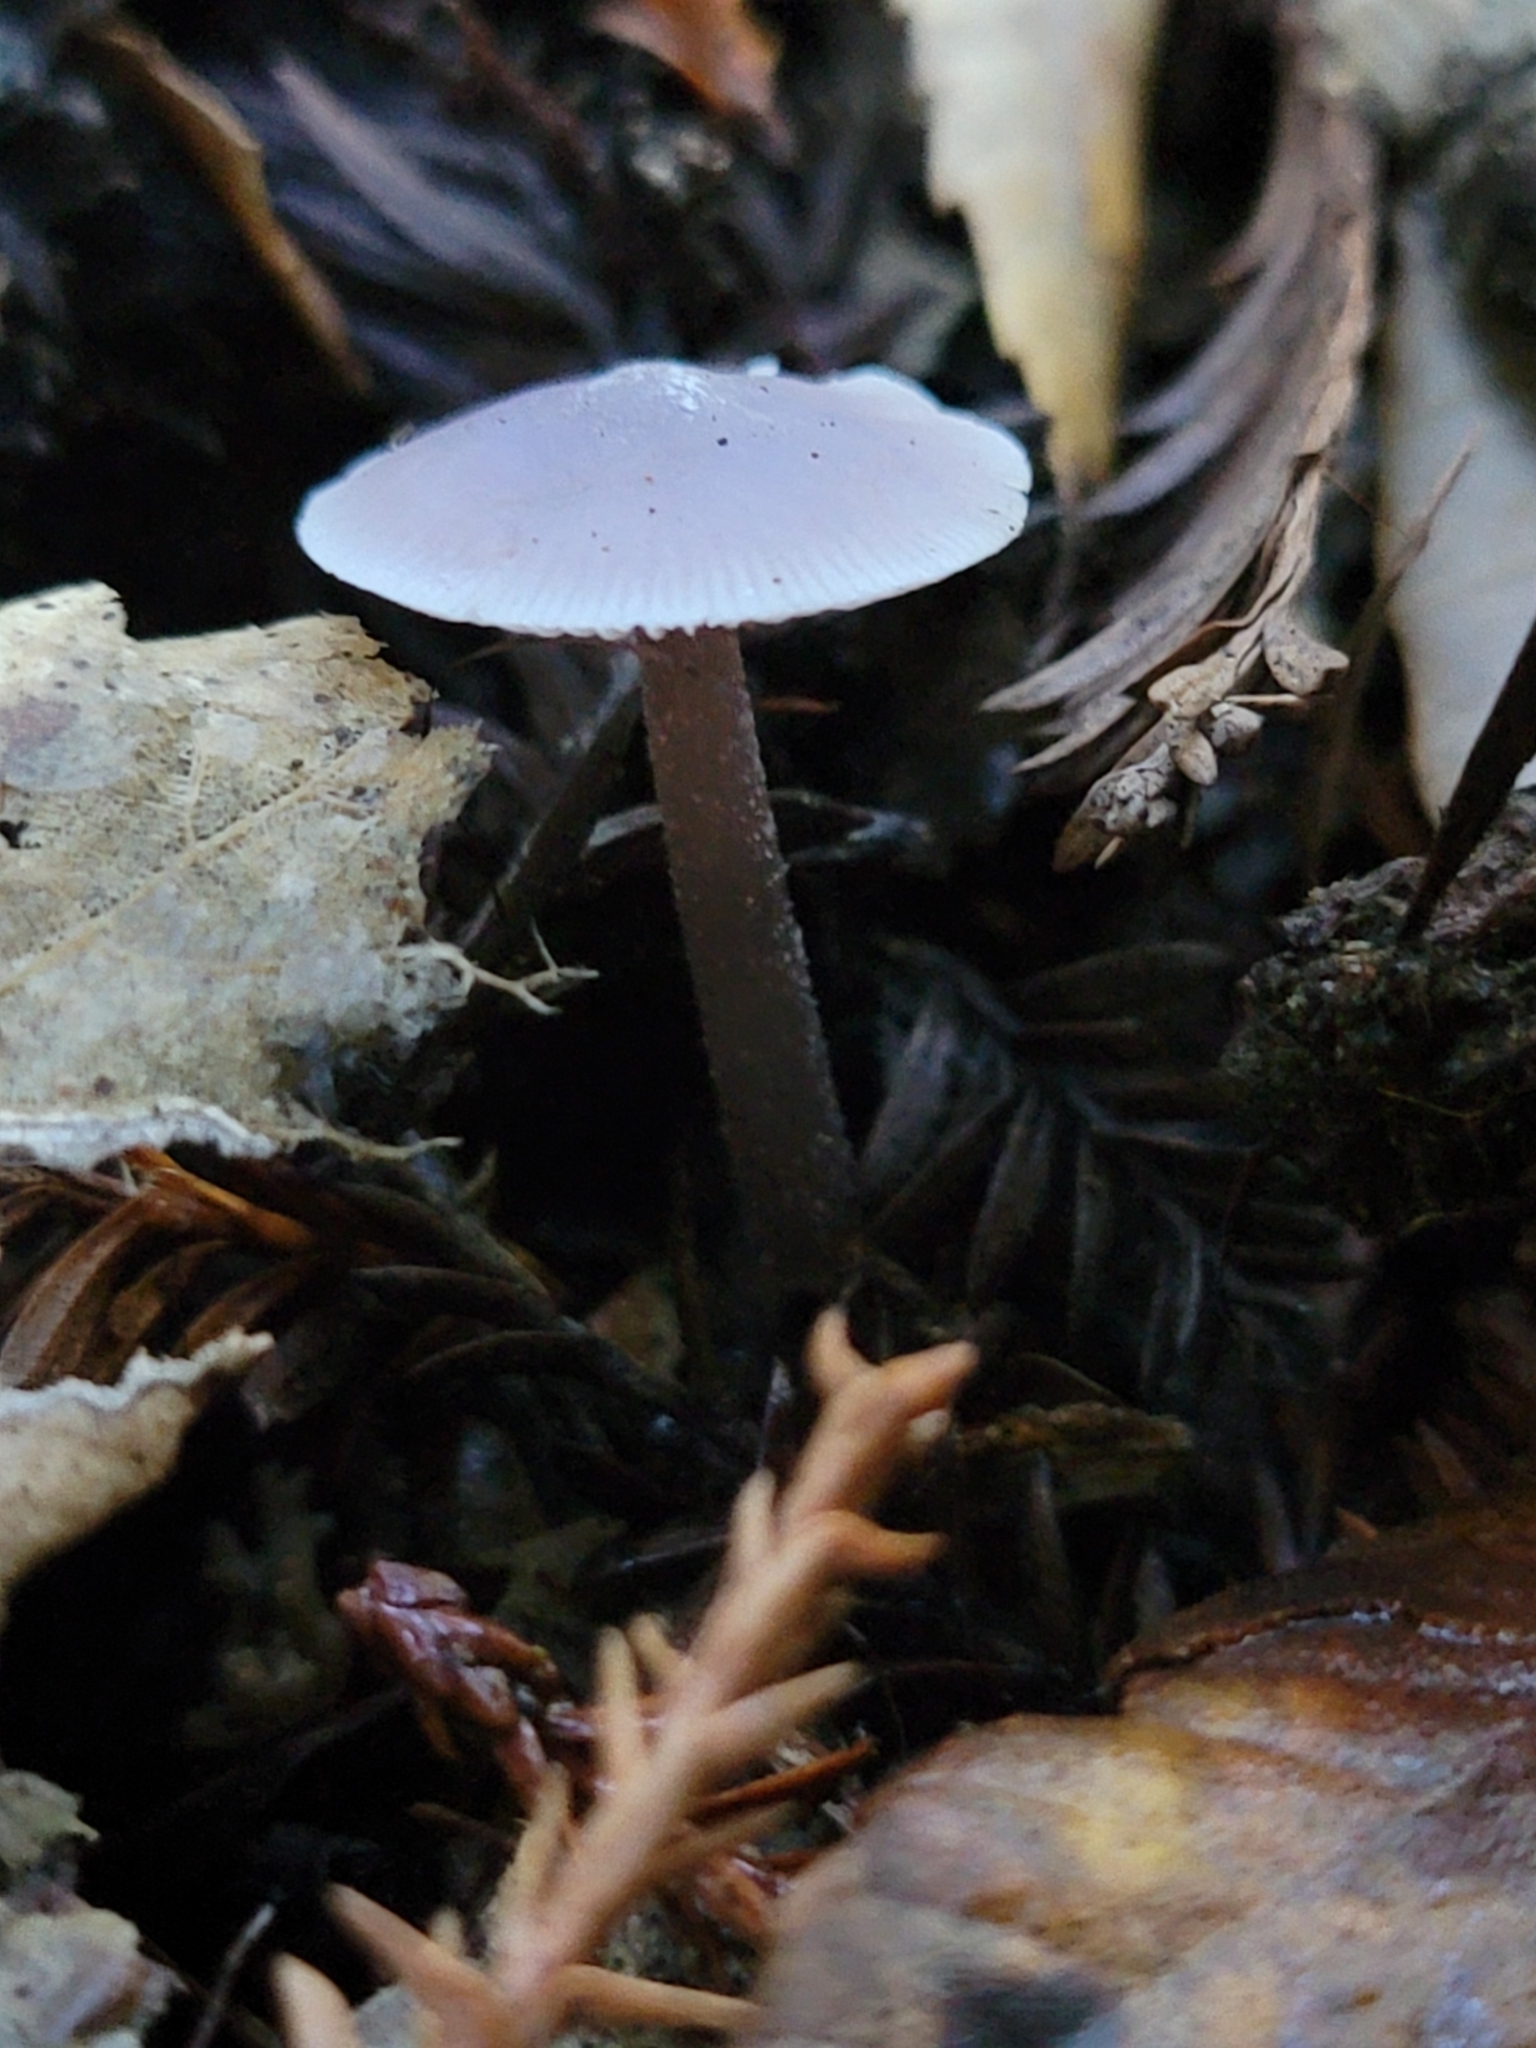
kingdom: Fungi
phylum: Basidiomycota
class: Agaricomycetes
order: Agaricales
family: Mycenaceae
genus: Mycena
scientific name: Mycena pura
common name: Lilac bonnet
